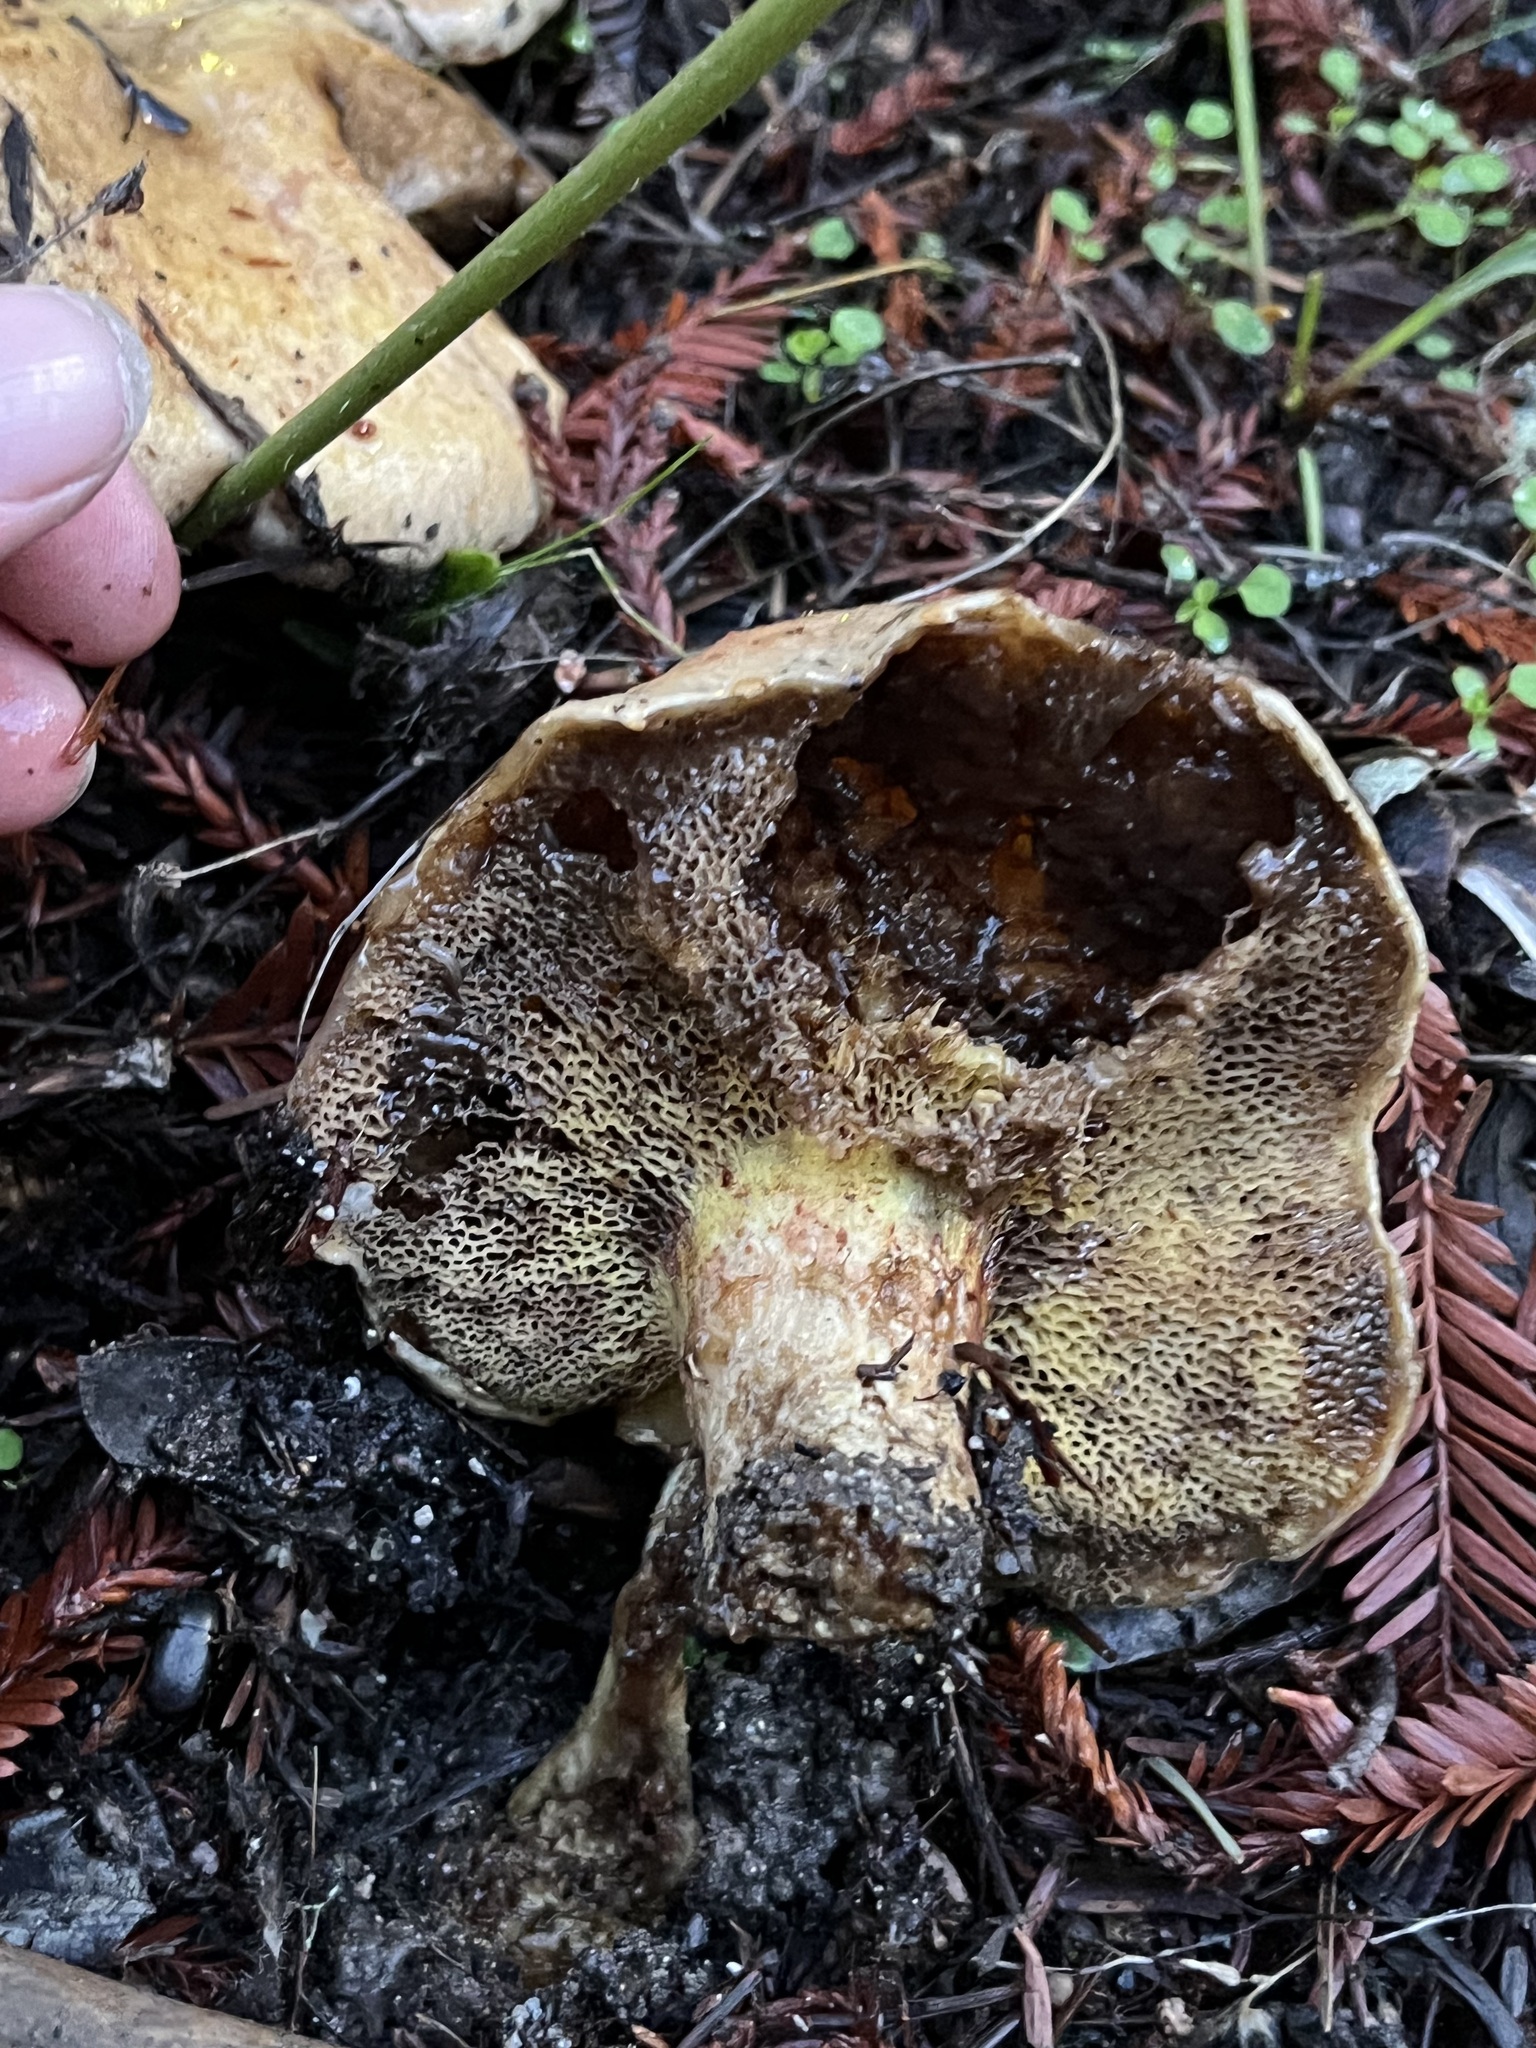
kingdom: Fungi
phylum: Basidiomycota
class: Agaricomycetes
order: Boletales
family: Suillaceae
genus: Suillus
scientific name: Suillus caerulescens
